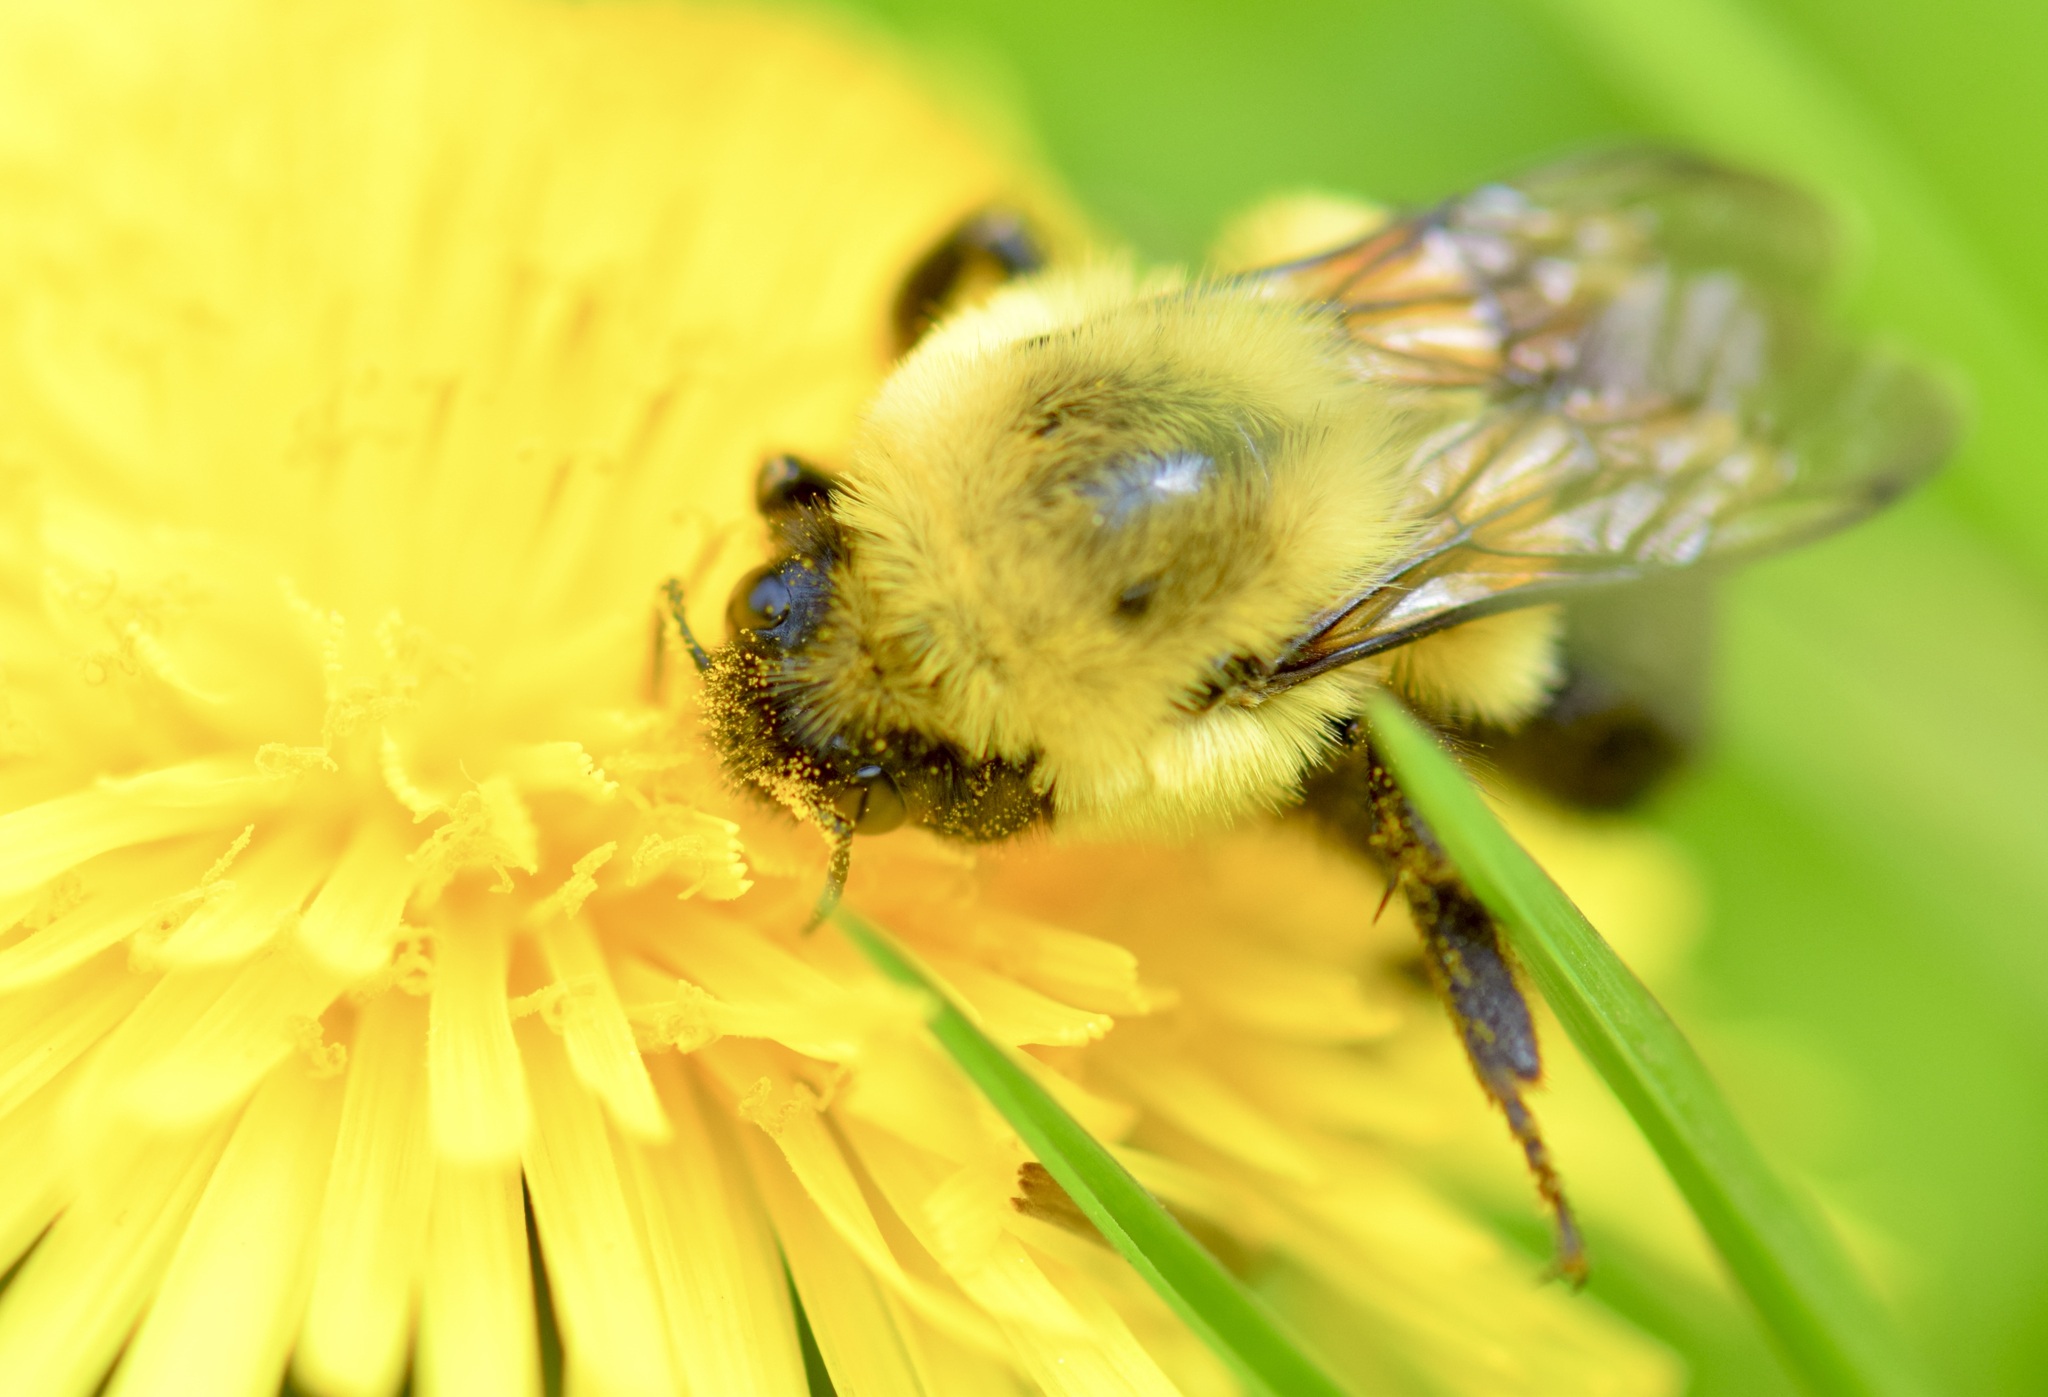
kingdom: Animalia
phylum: Arthropoda
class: Insecta
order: Hymenoptera
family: Apidae
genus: Bombus
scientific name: Bombus impatiens
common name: Common eastern bumble bee
